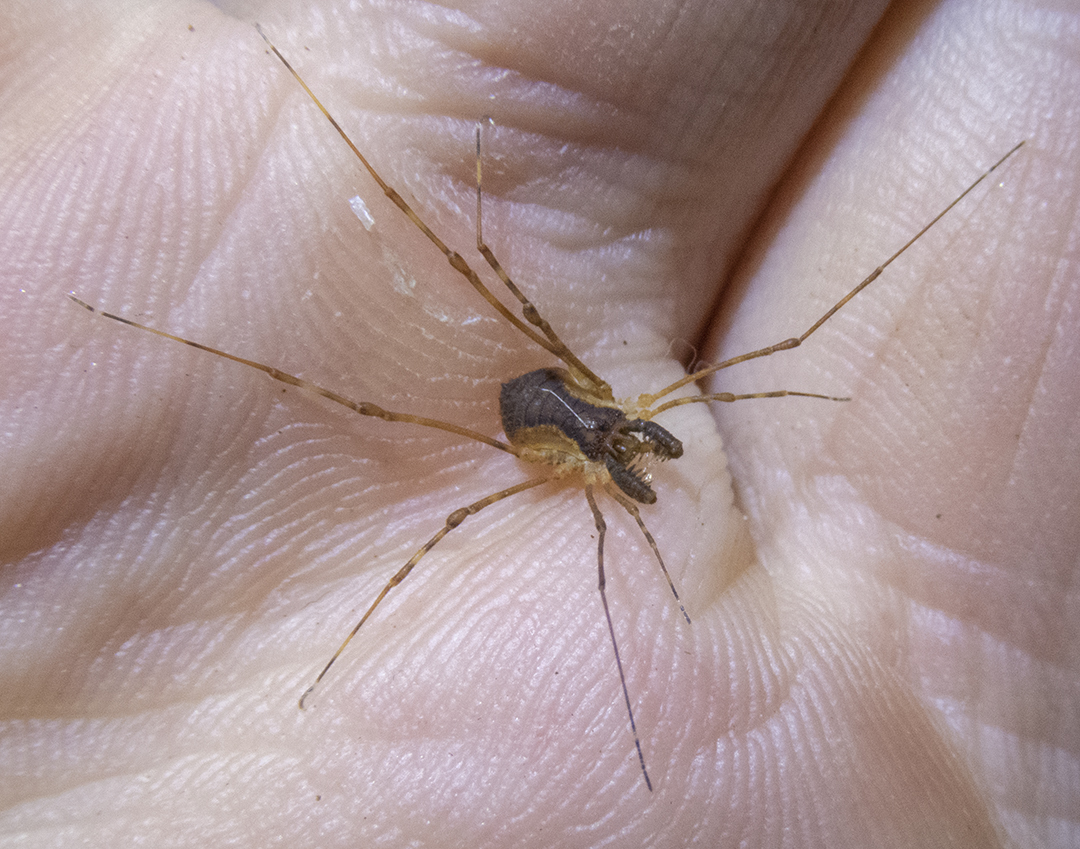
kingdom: Animalia
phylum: Arthropoda
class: Arachnida
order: Opiliones
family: Triaenonychidae
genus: Algidia
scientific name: Algidia interrupta
